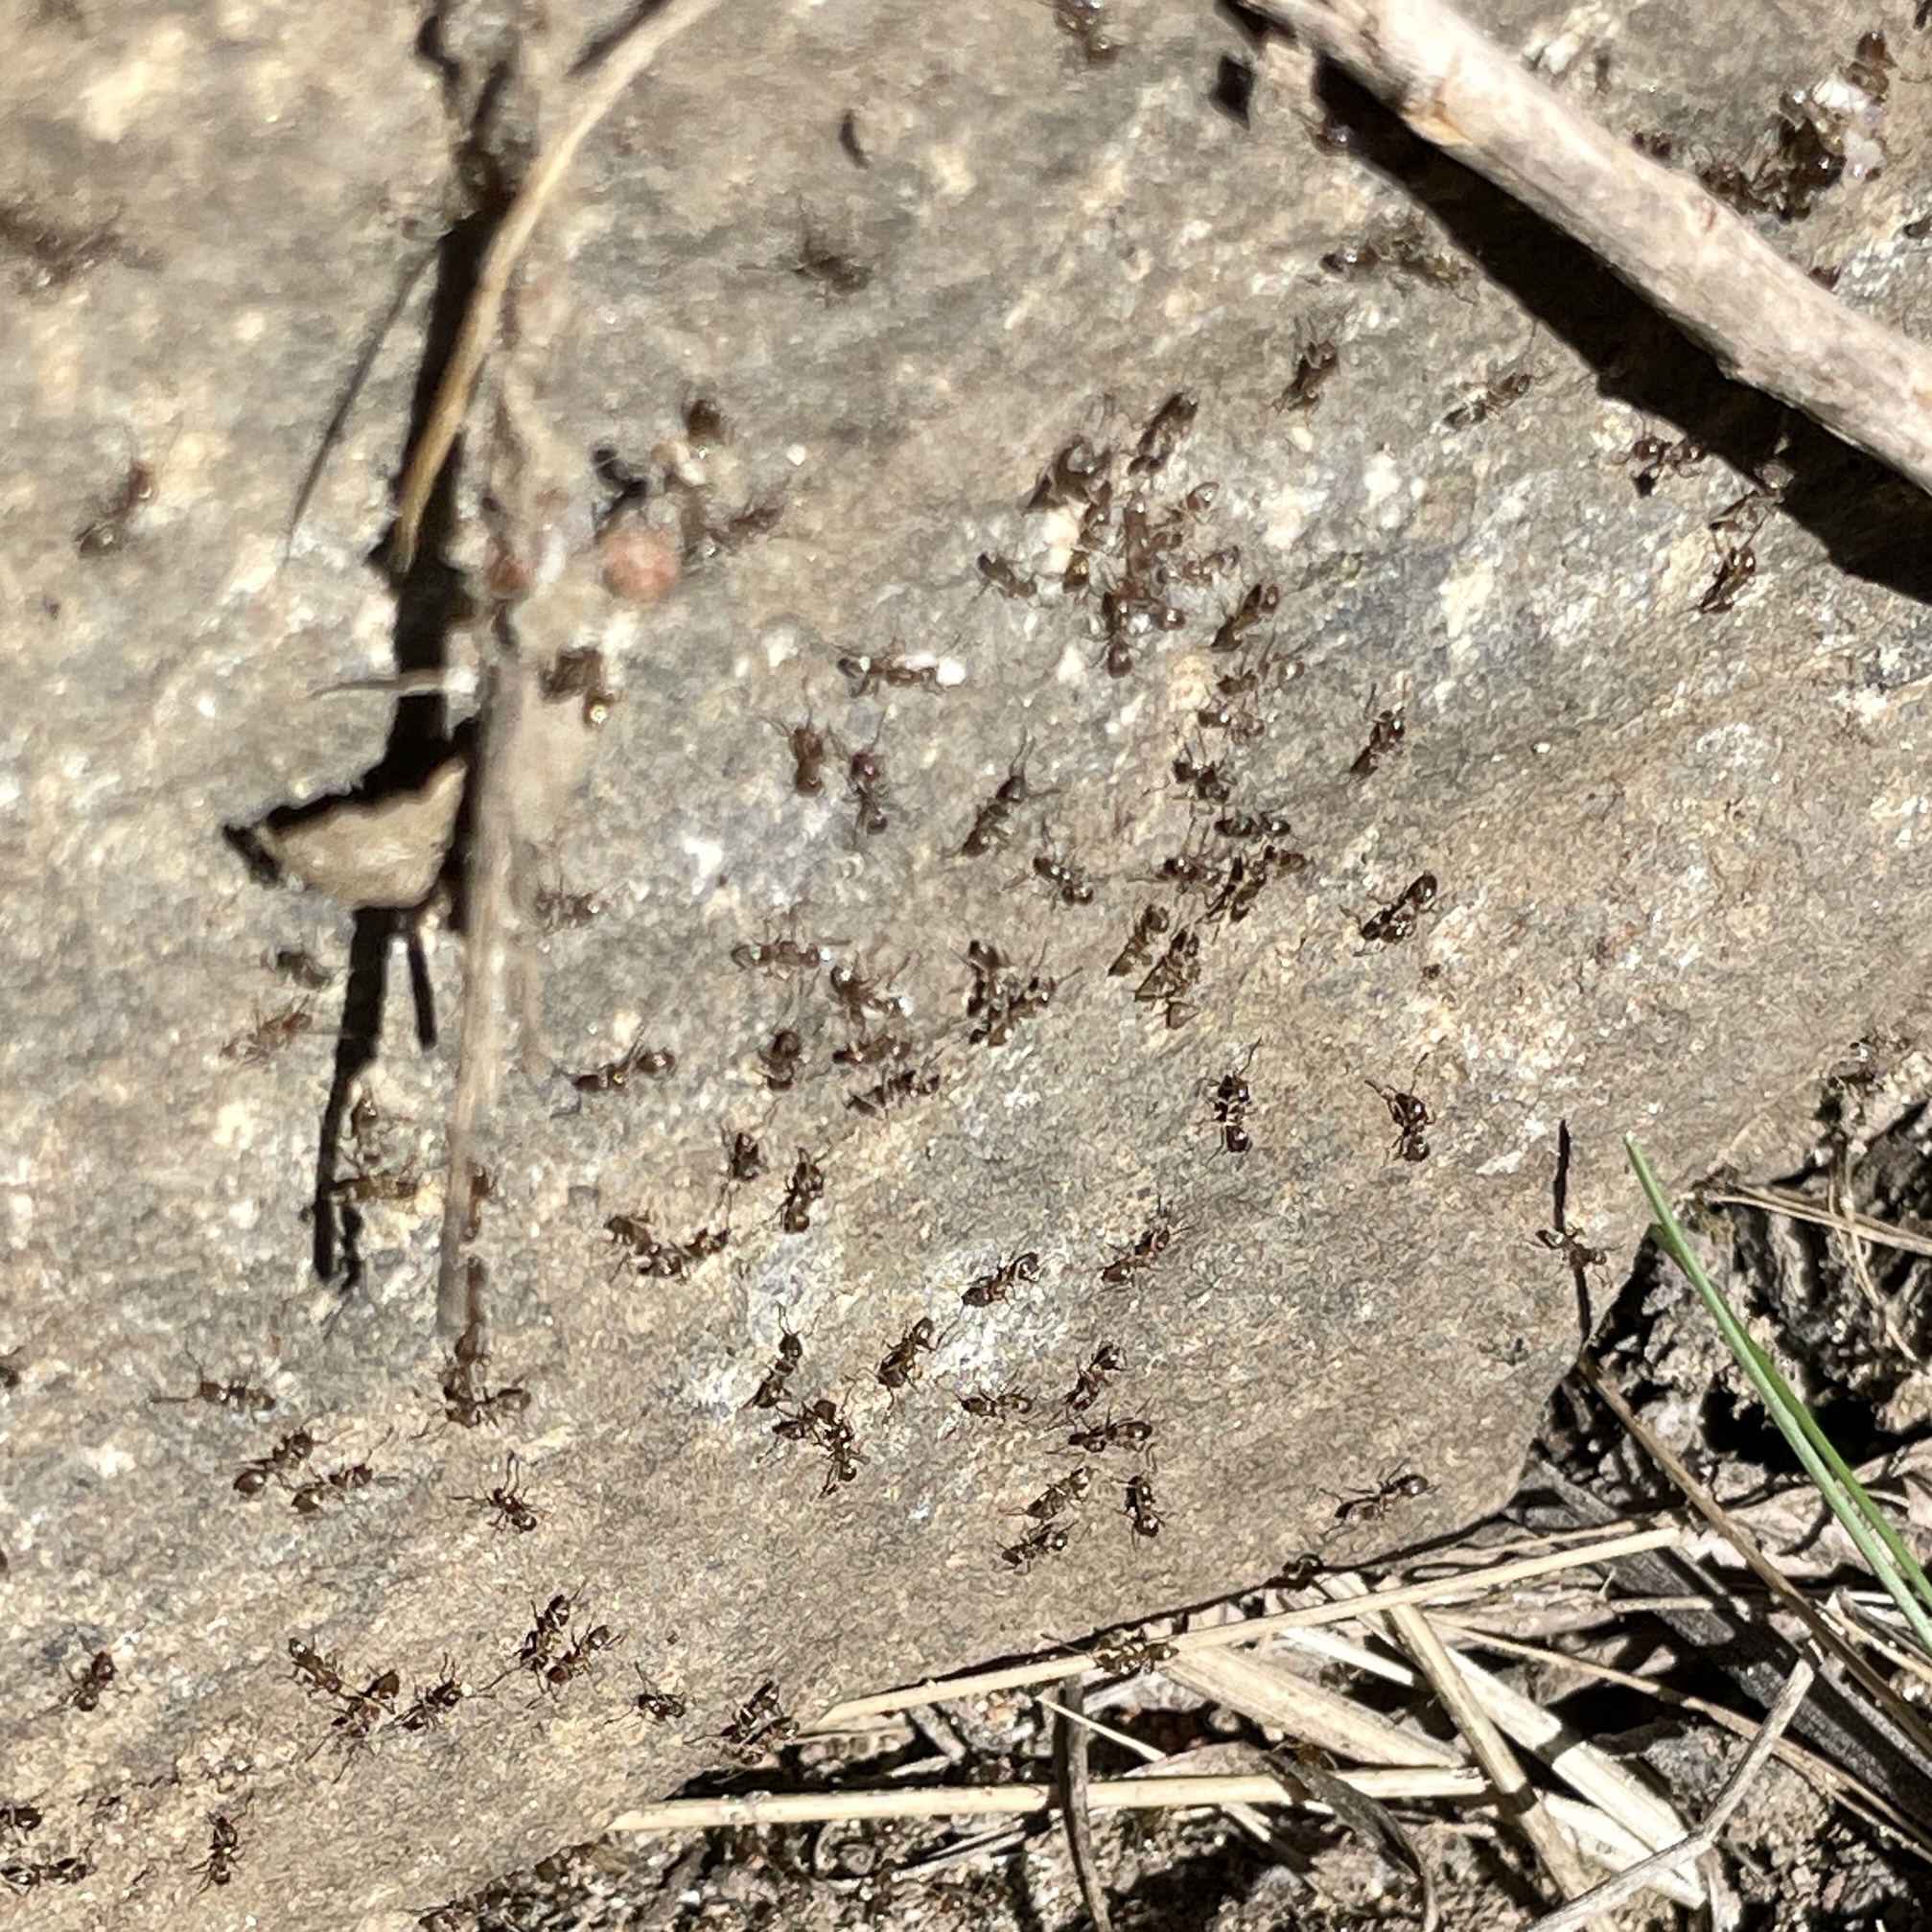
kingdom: Animalia
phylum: Arthropoda
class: Insecta
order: Hymenoptera
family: Formicidae
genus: Linepithema
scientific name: Linepithema humile
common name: Argentine ant
